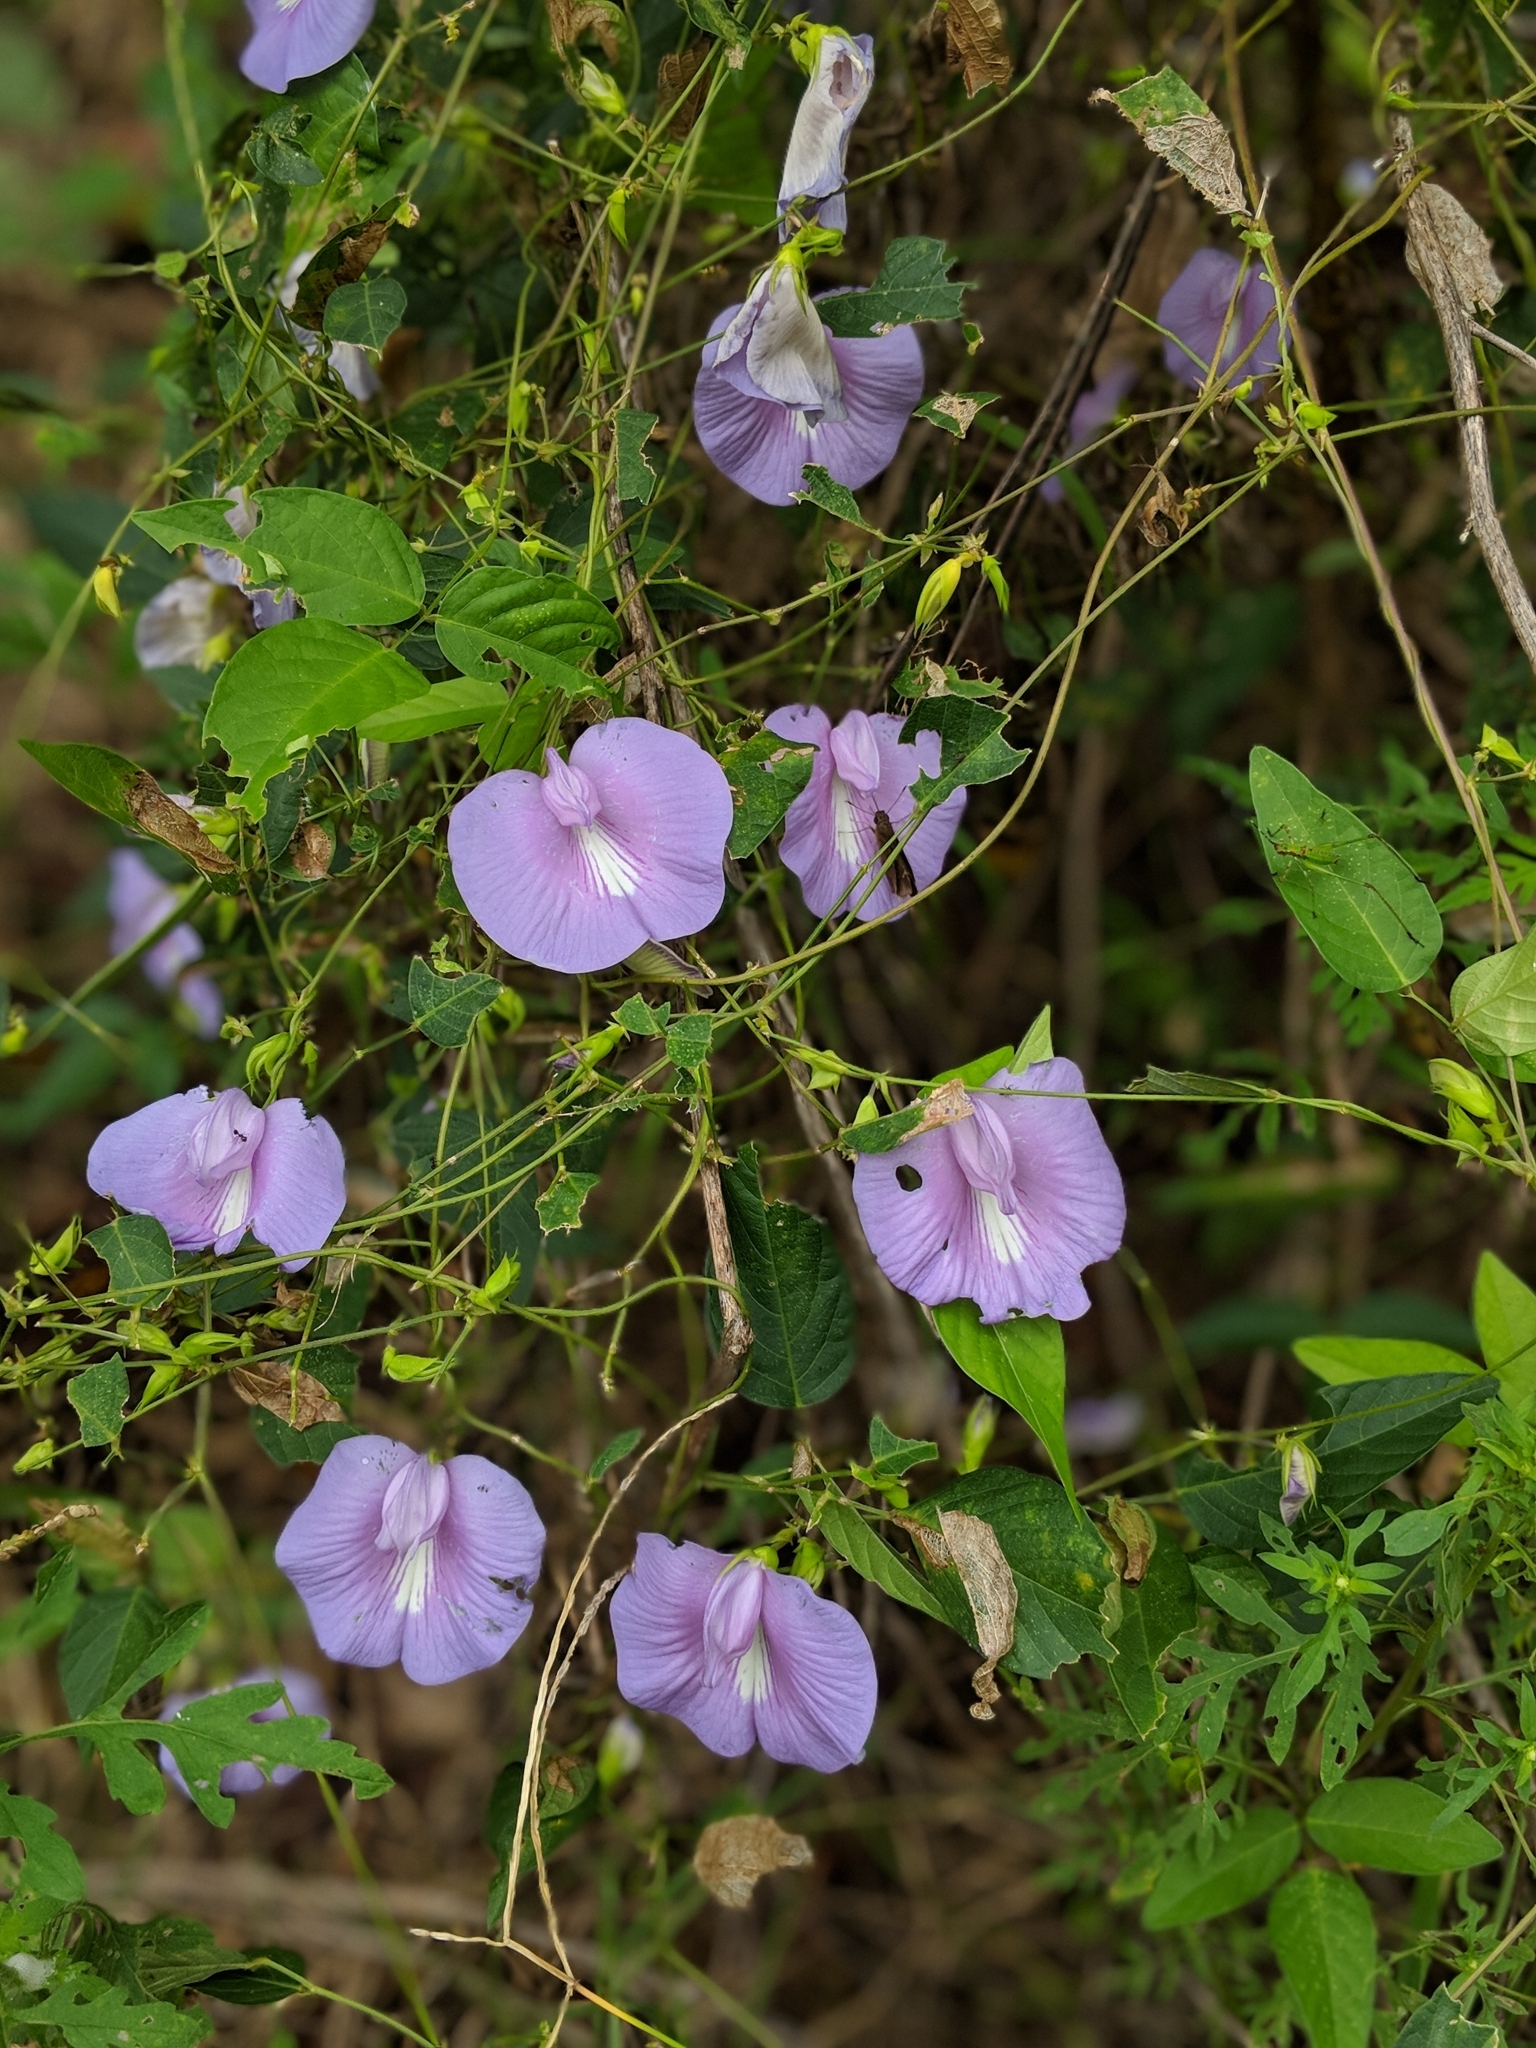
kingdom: Plantae
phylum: Tracheophyta
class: Magnoliopsida
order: Fabales
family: Fabaceae
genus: Centrosema
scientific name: Centrosema virginianum
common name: Butterfly-pea
